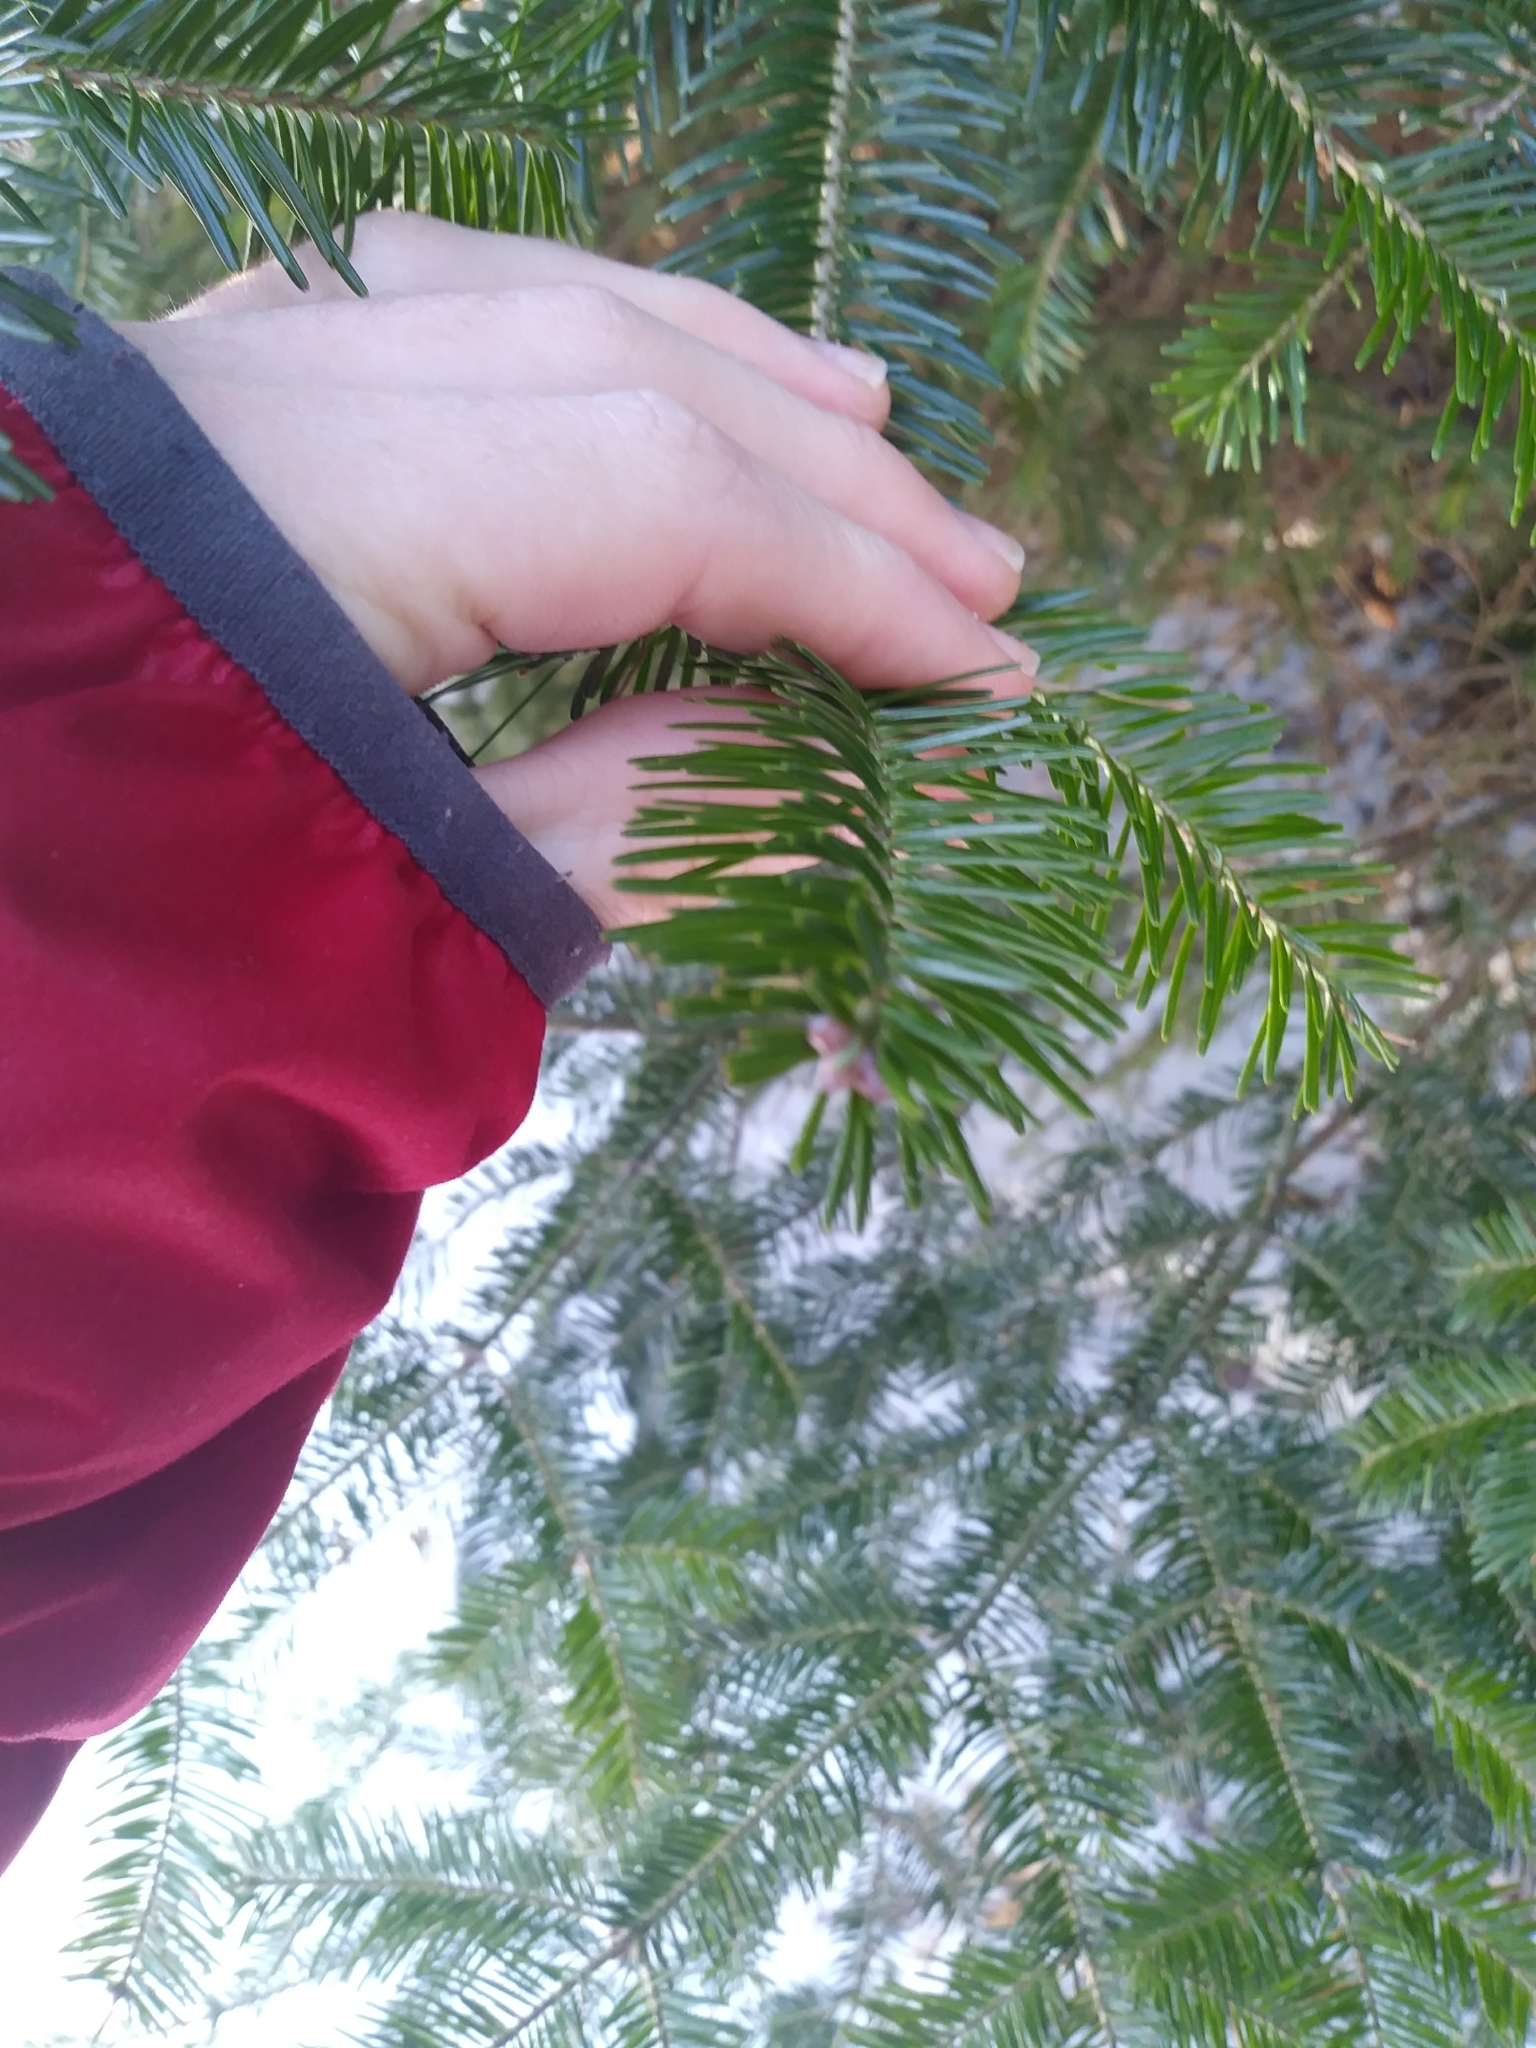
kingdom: Plantae
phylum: Tracheophyta
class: Pinopsida
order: Pinales
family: Pinaceae
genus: Abies
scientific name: Abies balsamea
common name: Balsam fir
